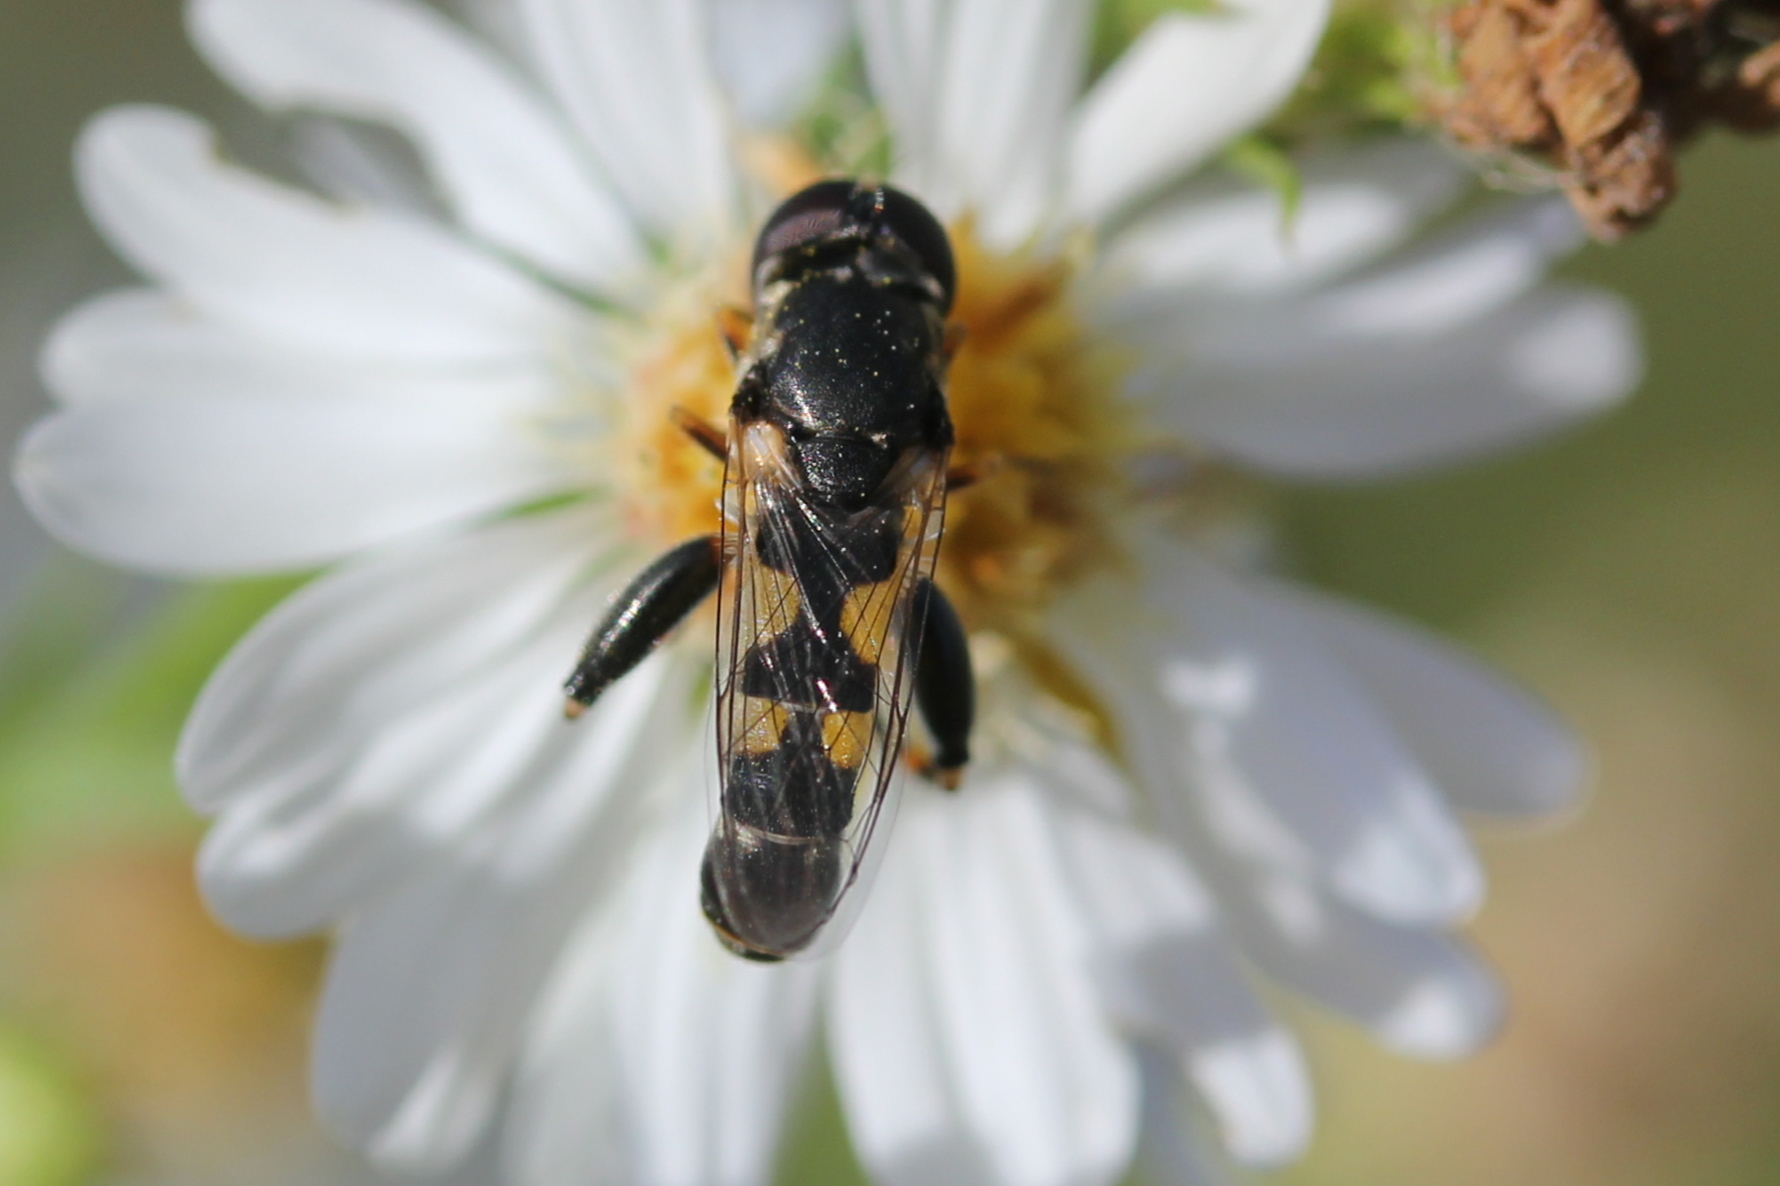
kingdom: Animalia
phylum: Arthropoda
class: Insecta
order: Diptera
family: Syrphidae
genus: Syritta
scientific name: Syritta pipiens
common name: Hover fly
